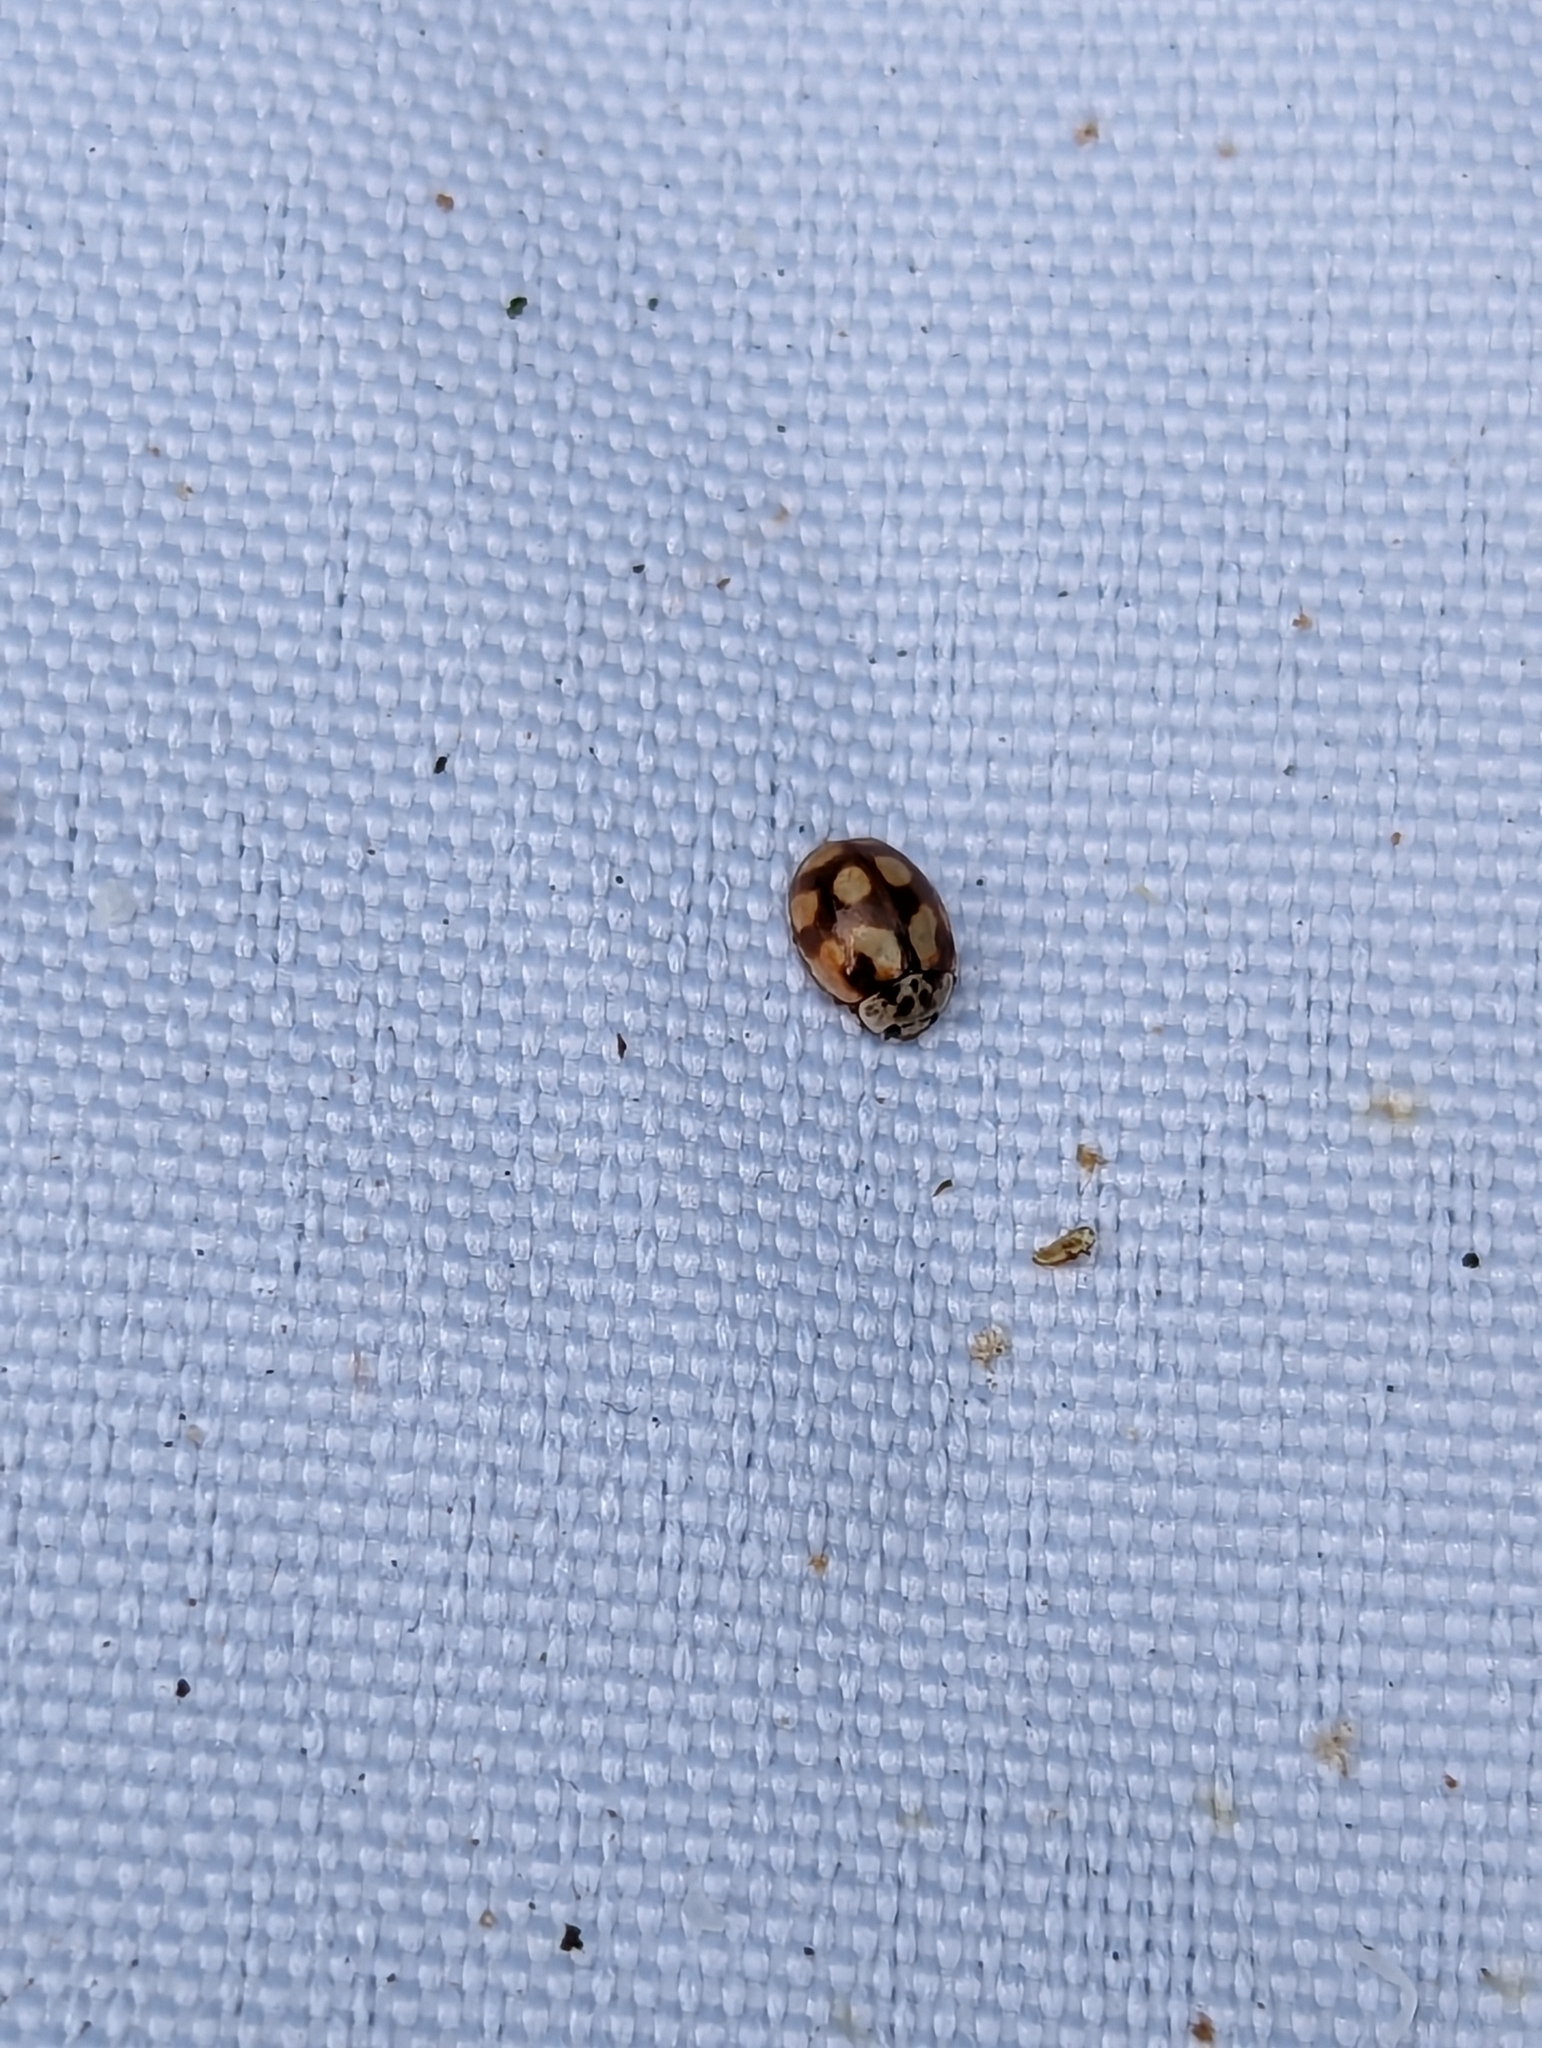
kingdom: Animalia
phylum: Arthropoda
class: Insecta
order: Coleoptera
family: Coccinellidae
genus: Adalia
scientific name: Adalia decempunctata
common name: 10-spot ladybird
